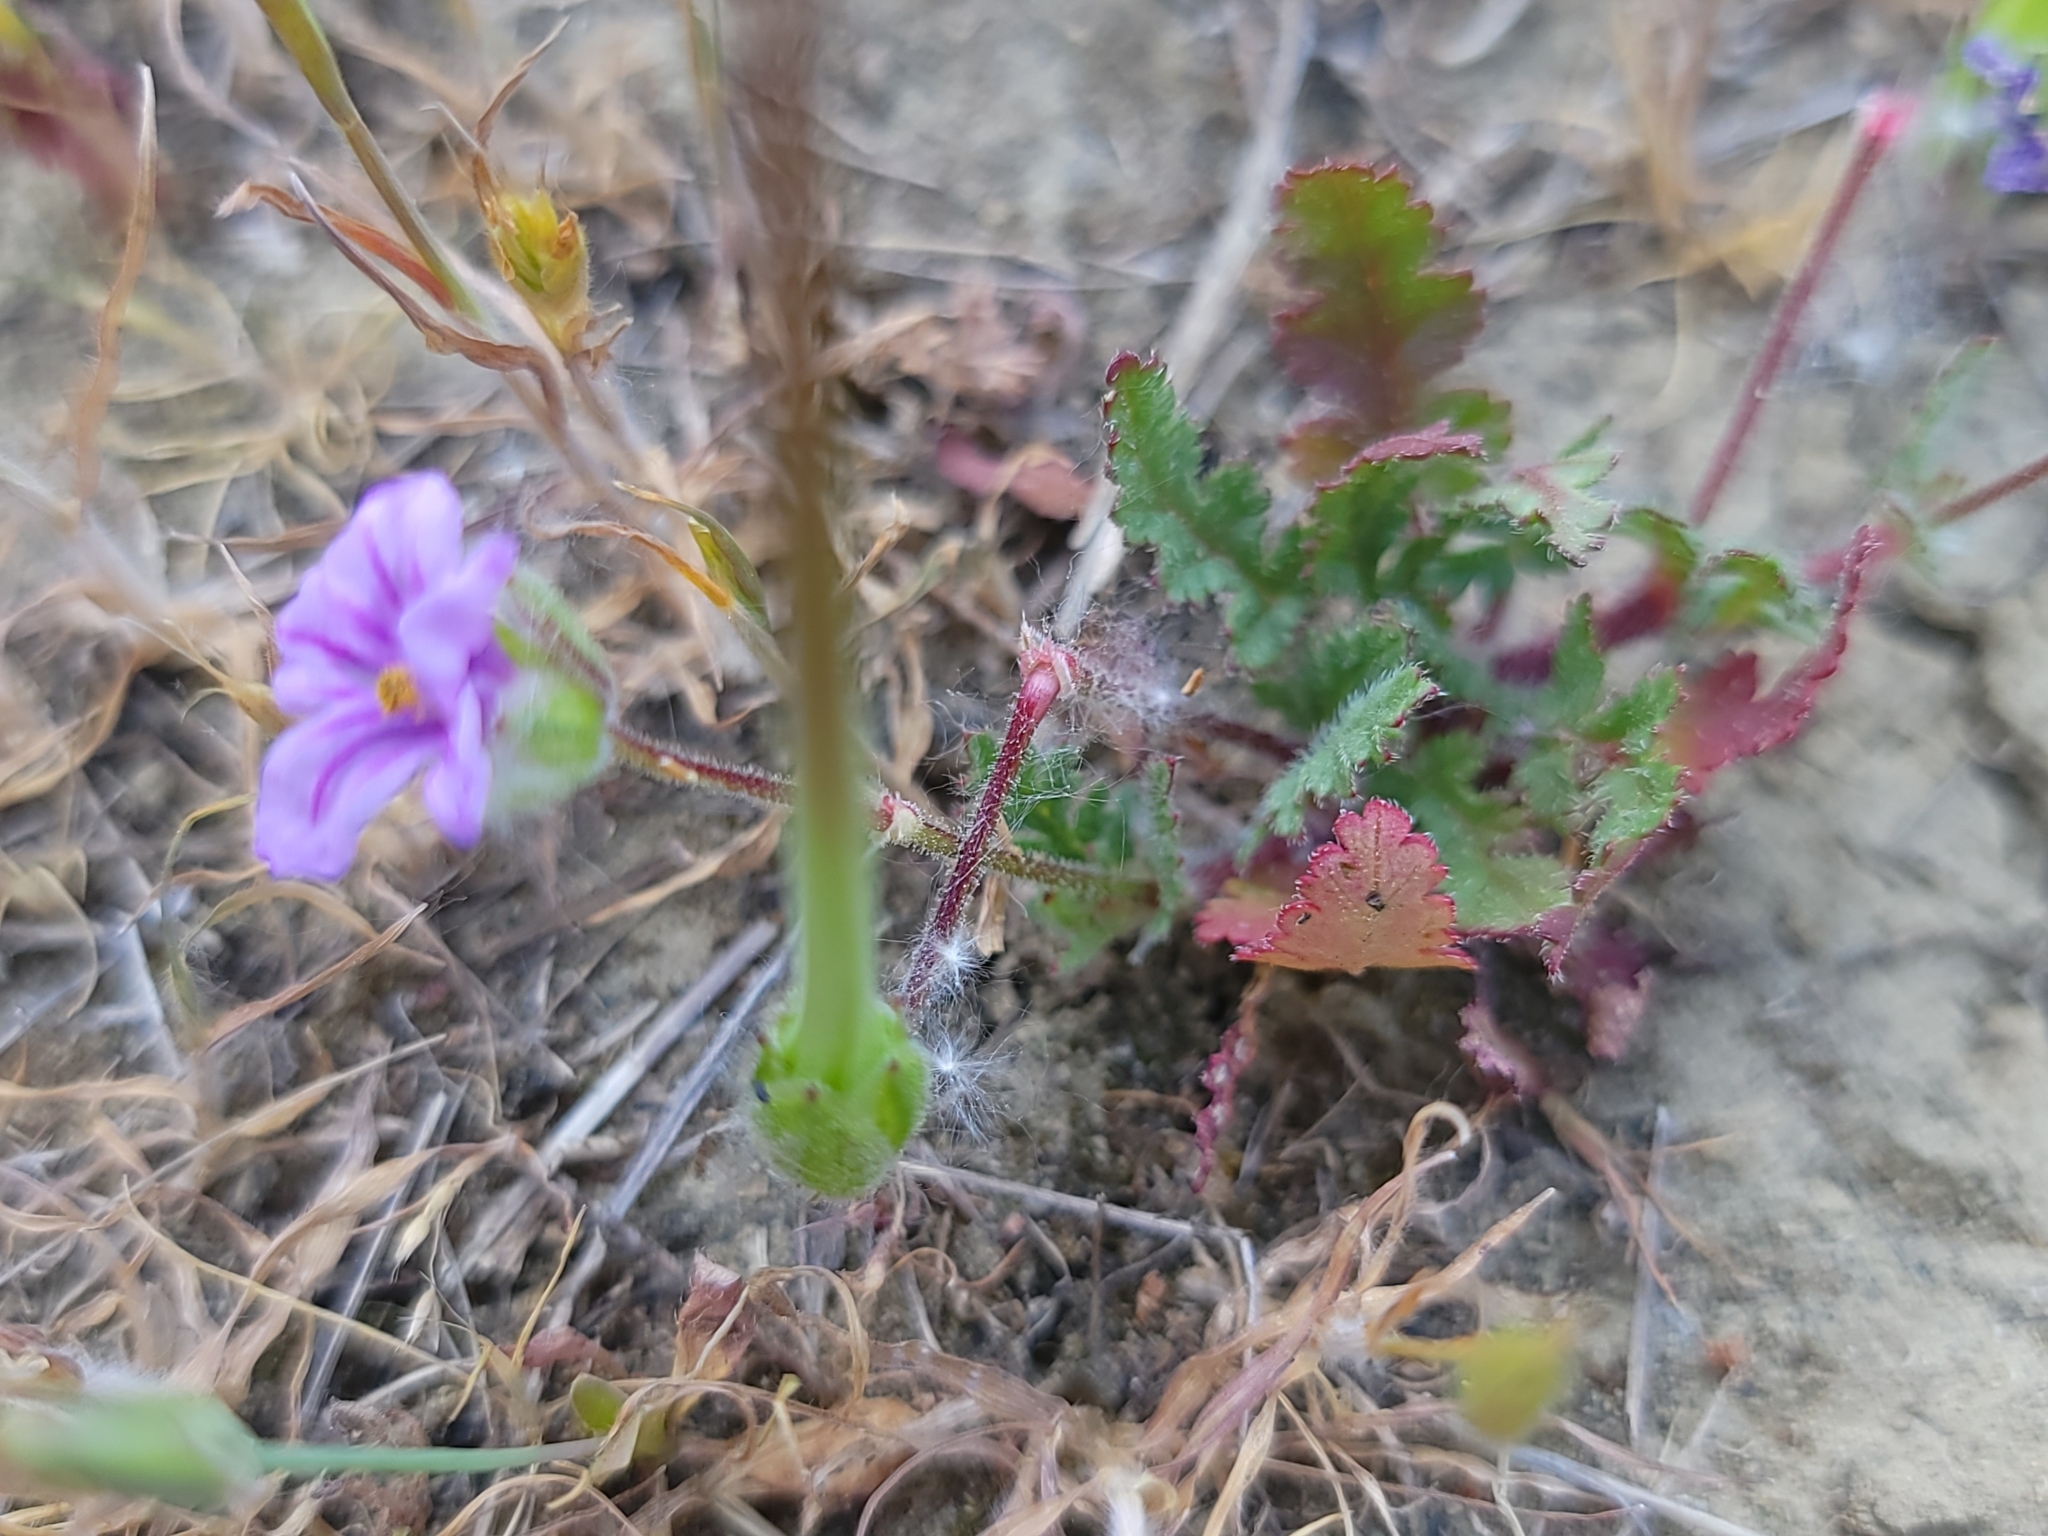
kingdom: Plantae
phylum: Tracheophyta
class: Magnoliopsida
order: Geraniales
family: Geraniaceae
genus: Erodium
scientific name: Erodium botrys
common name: Mediterranean stork's-bill
